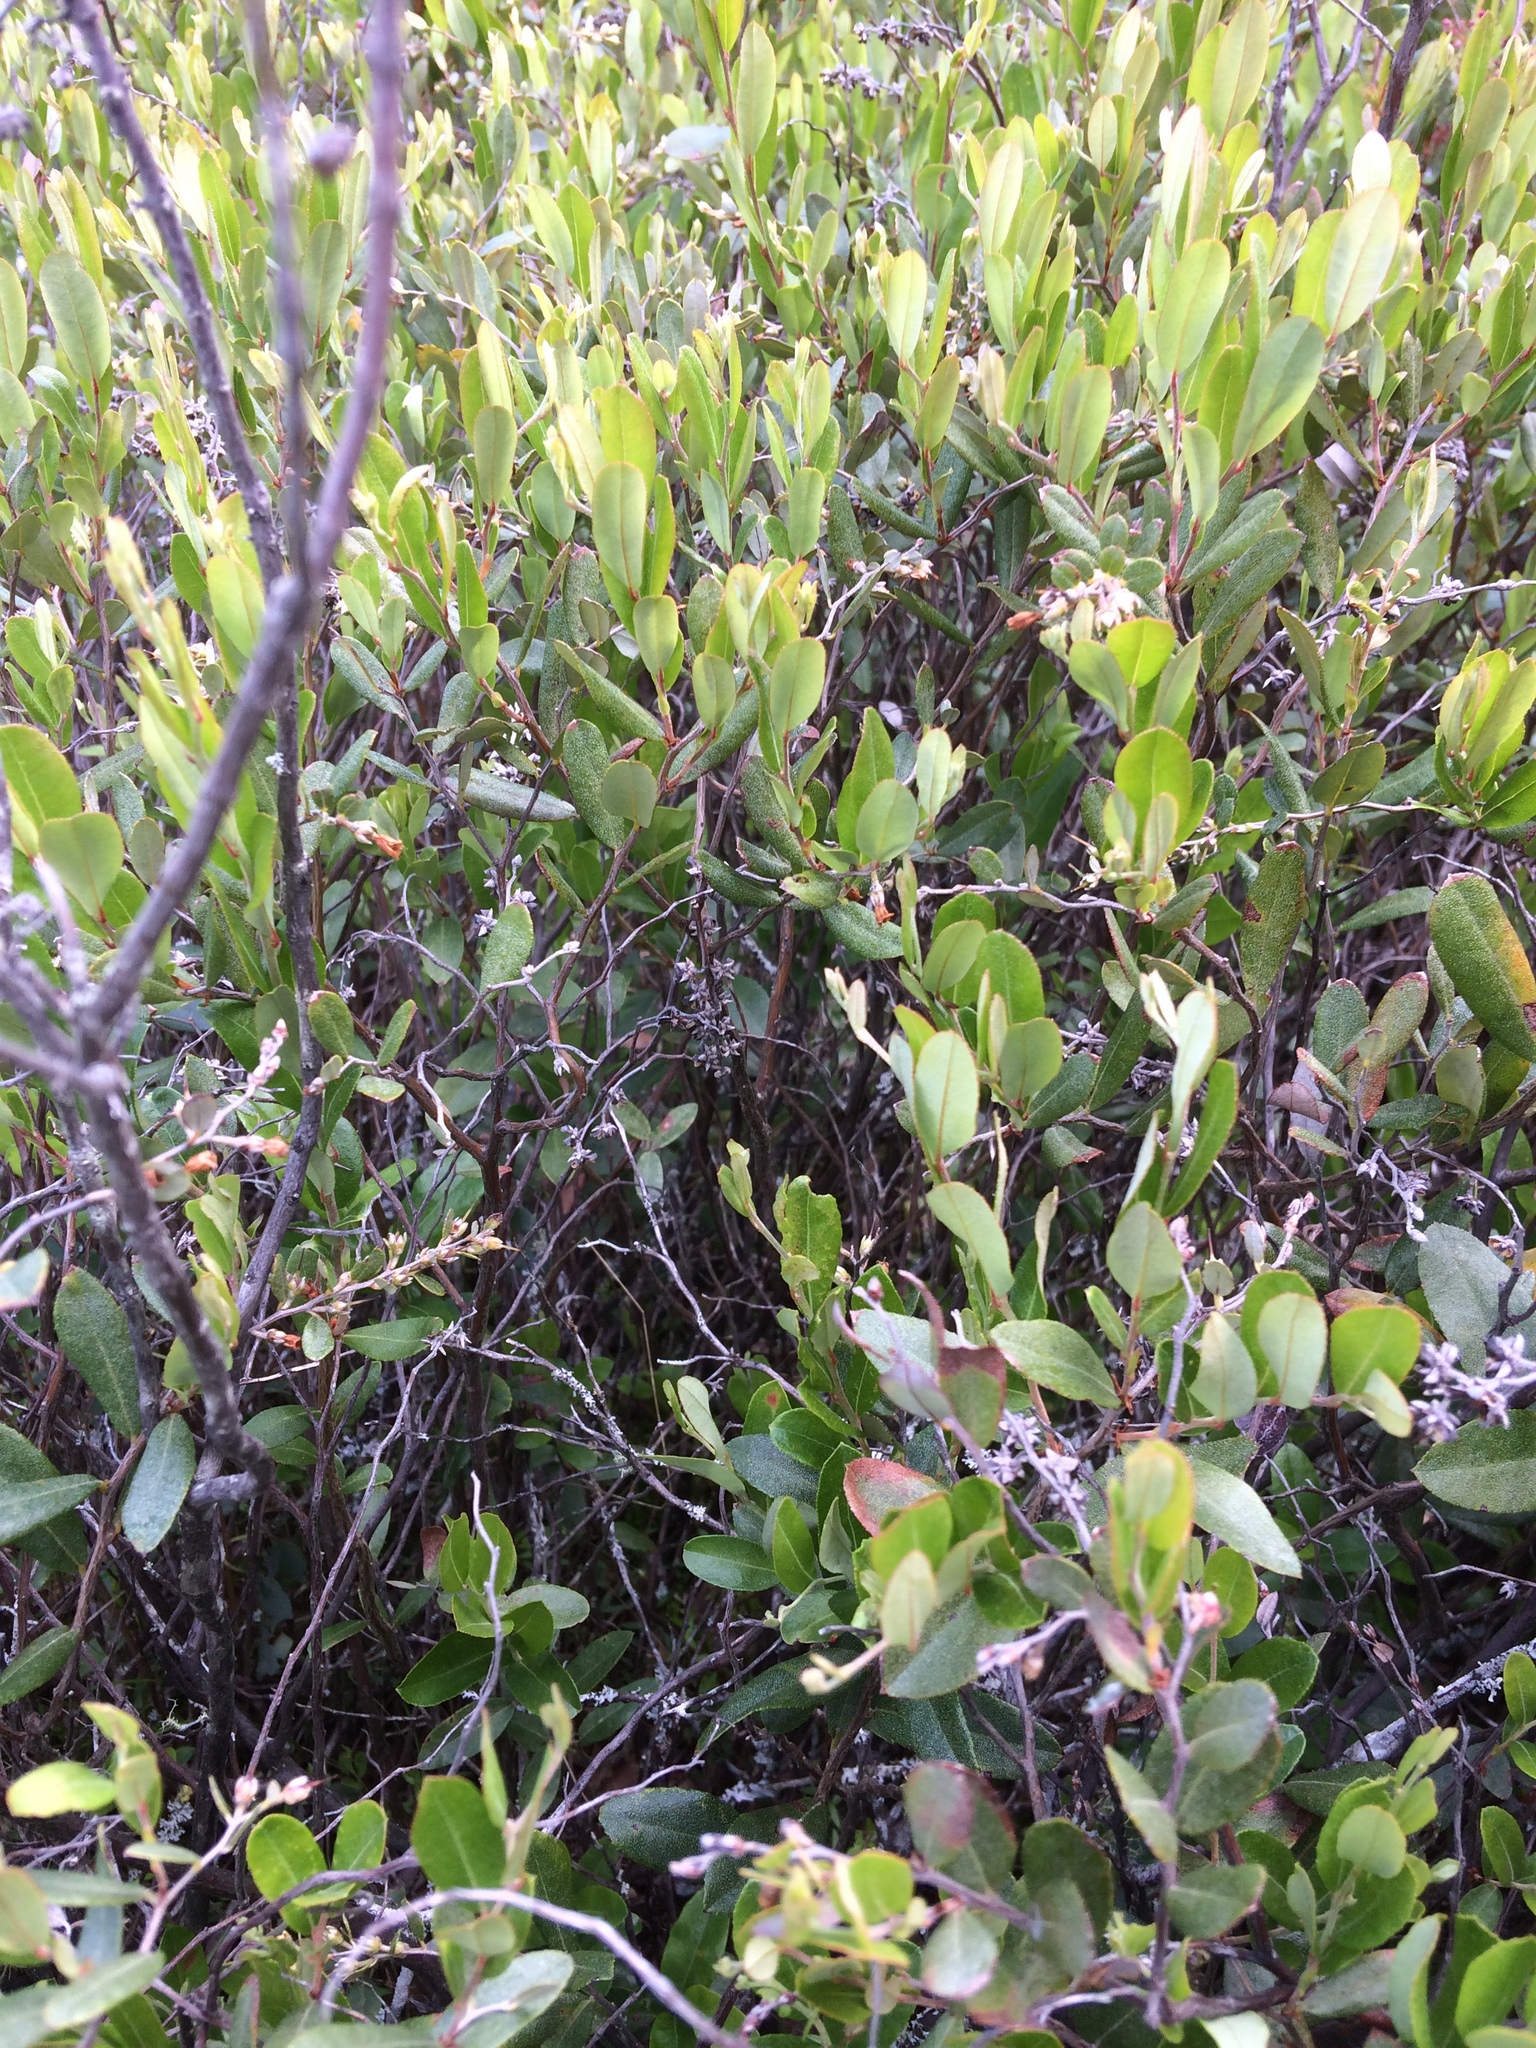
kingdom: Plantae
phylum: Tracheophyta
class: Magnoliopsida
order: Ericales
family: Ericaceae
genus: Chamaedaphne
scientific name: Chamaedaphne calyculata
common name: Leatherleaf
